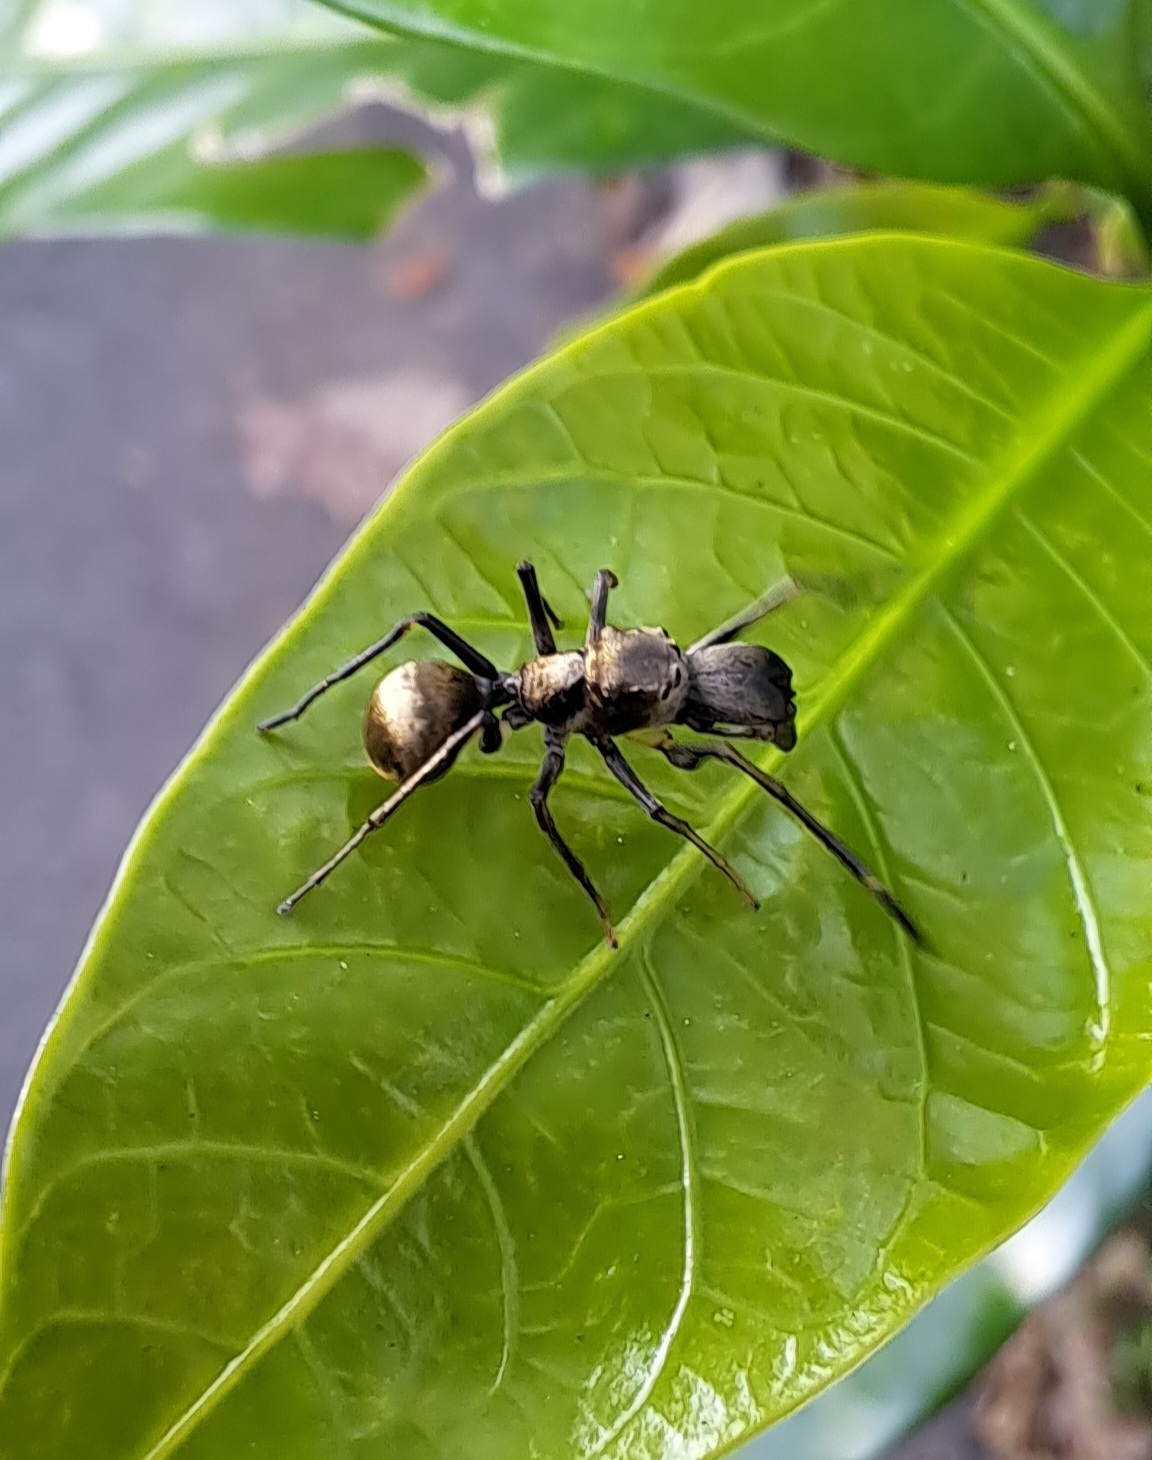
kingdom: Animalia
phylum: Arthropoda
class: Arachnida
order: Araneae
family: Salticidae
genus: Toxeus
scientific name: Toxeus maxillosus
